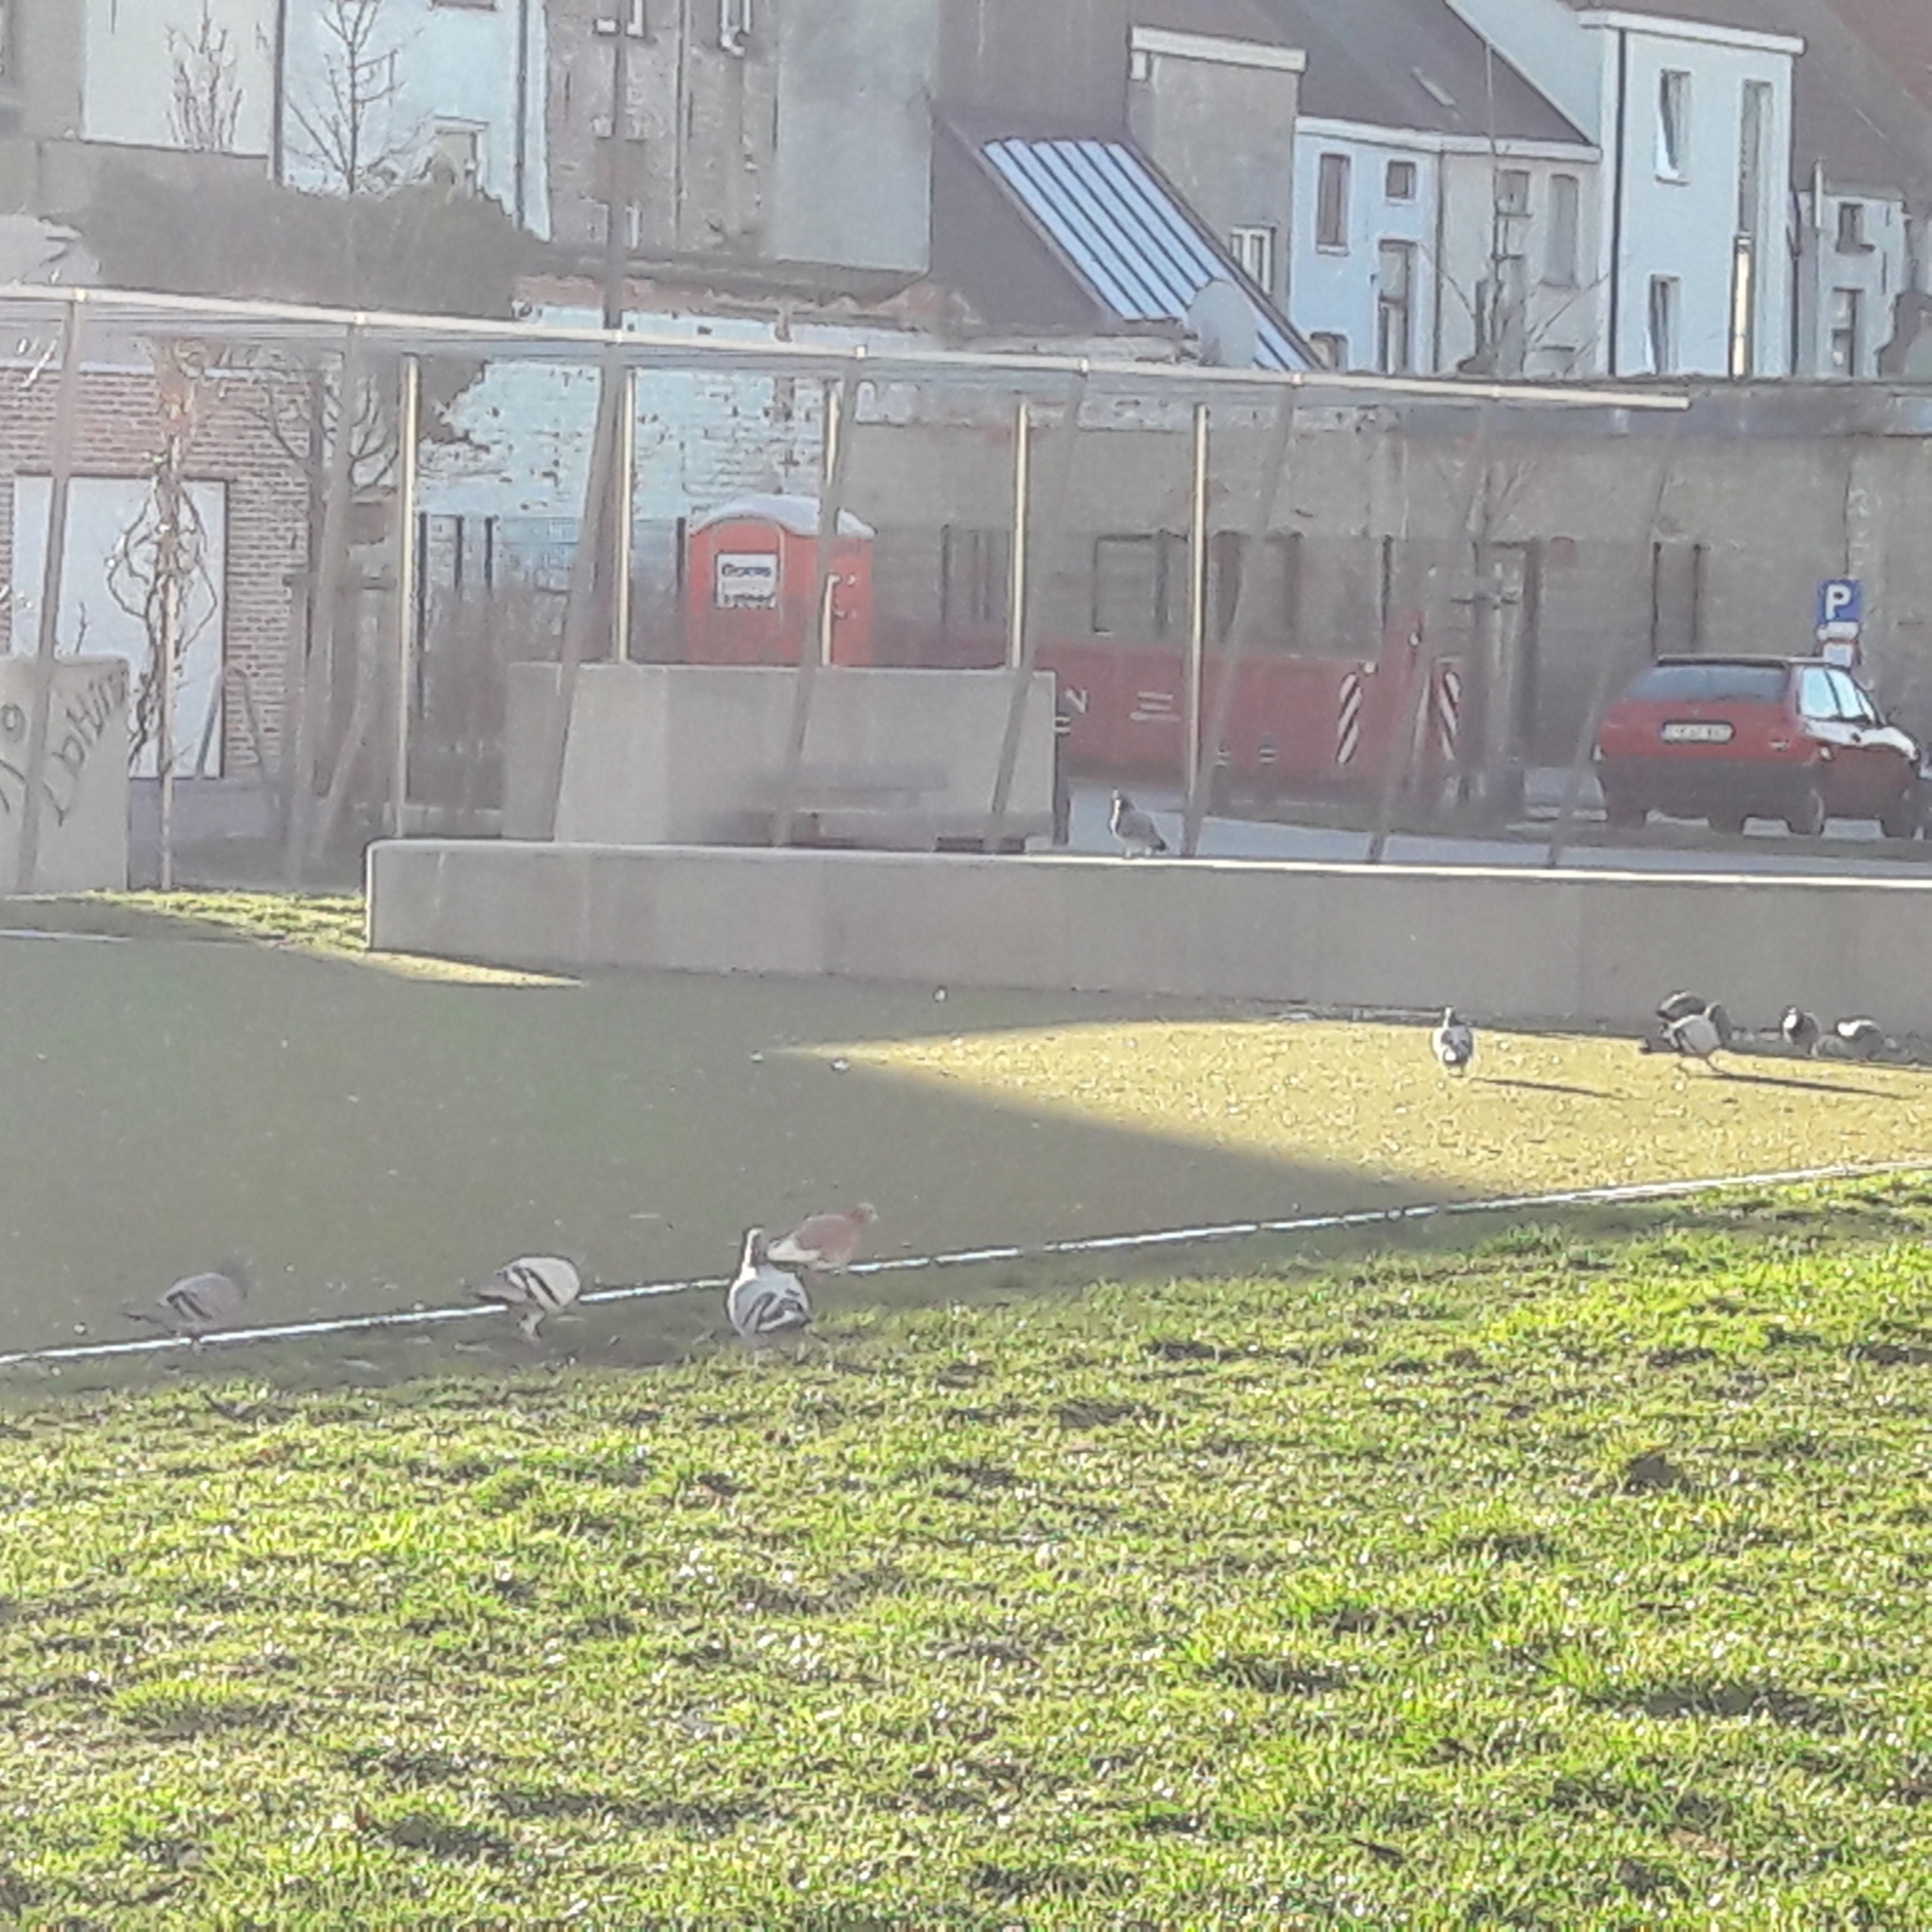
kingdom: Animalia
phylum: Chordata
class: Aves
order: Columbiformes
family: Columbidae
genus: Columba
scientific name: Columba livia
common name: Rock pigeon
